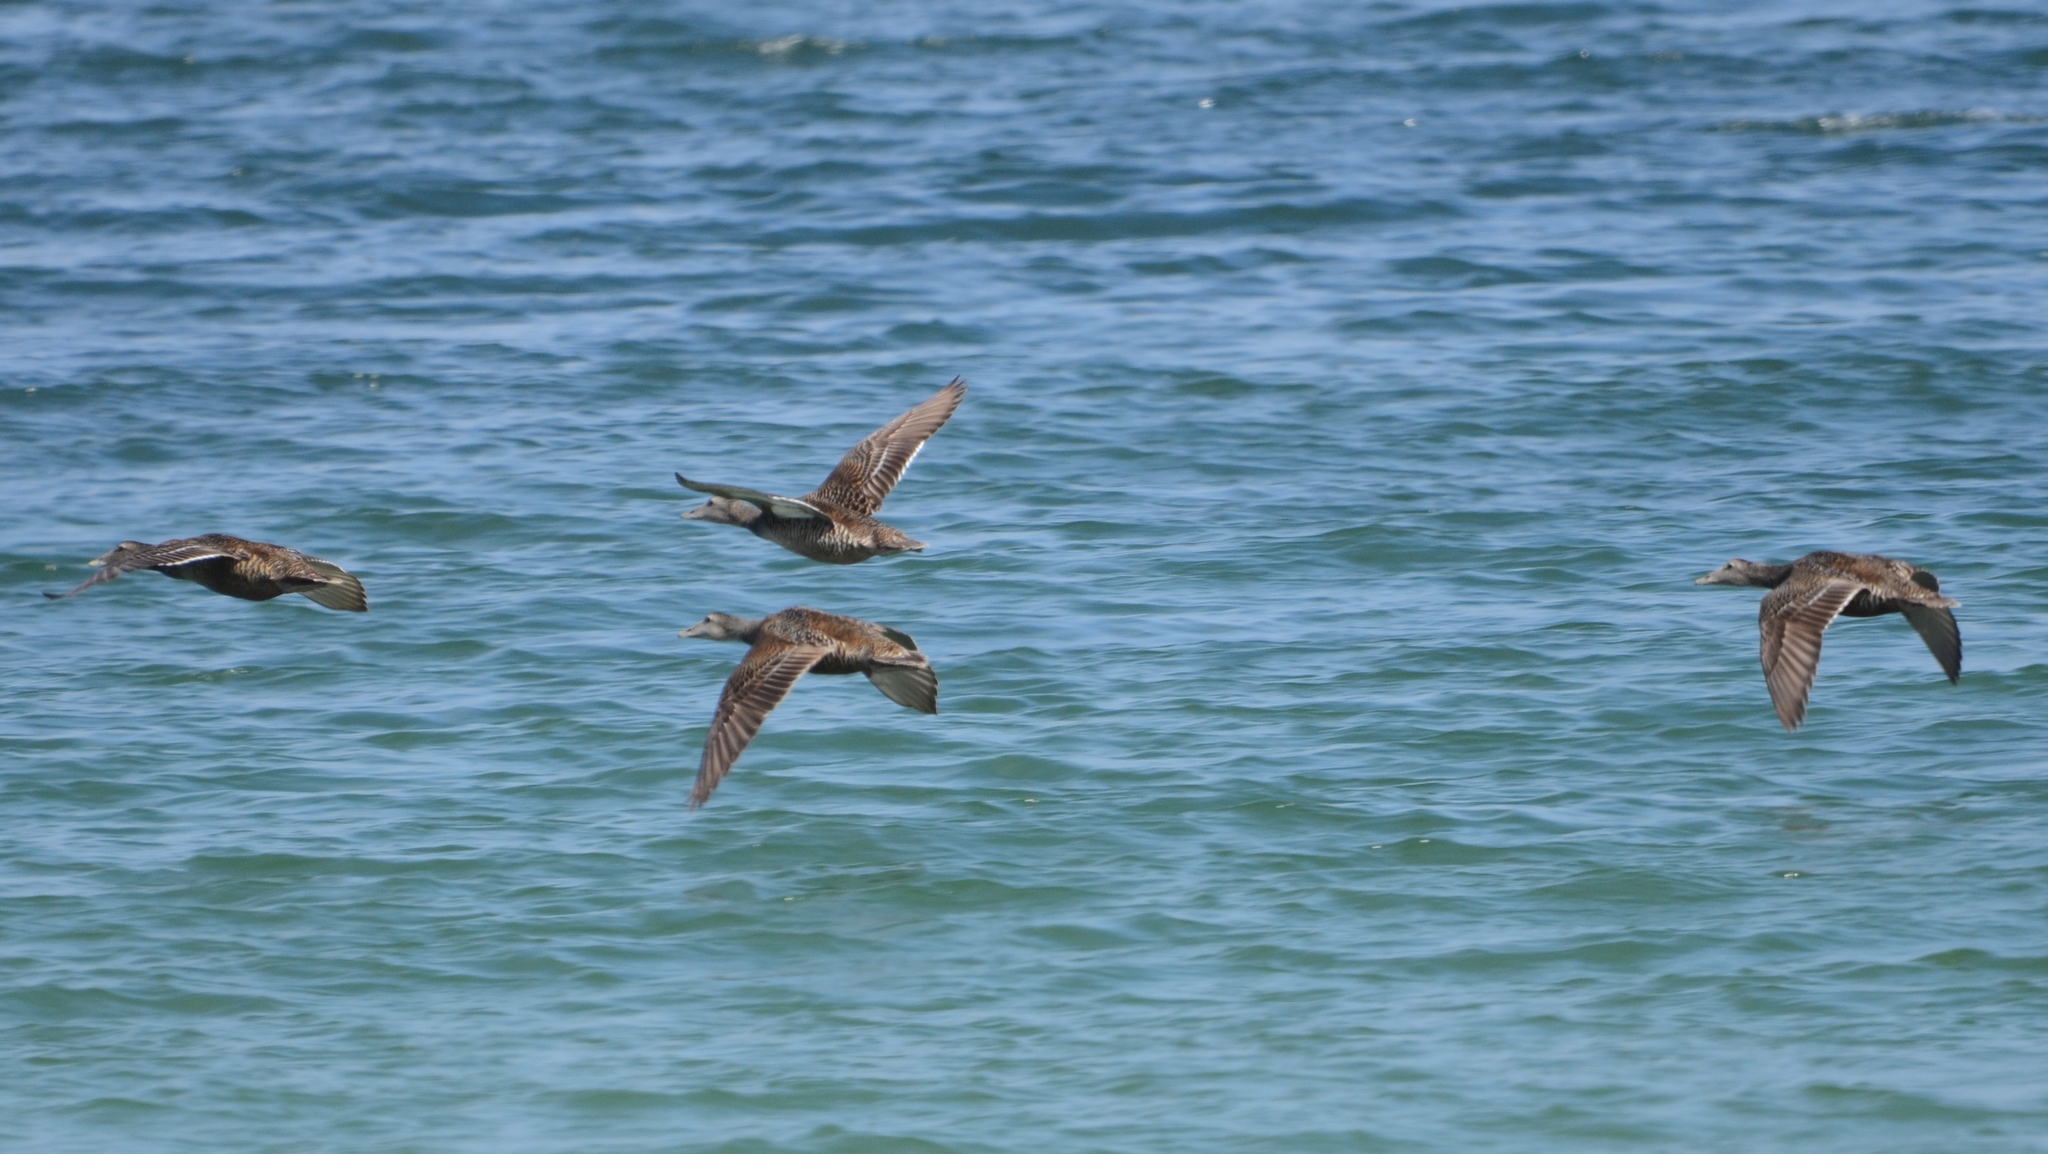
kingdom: Animalia
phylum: Chordata
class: Aves
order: Anseriformes
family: Anatidae
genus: Somateria
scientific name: Somateria mollissima
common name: Common eider
